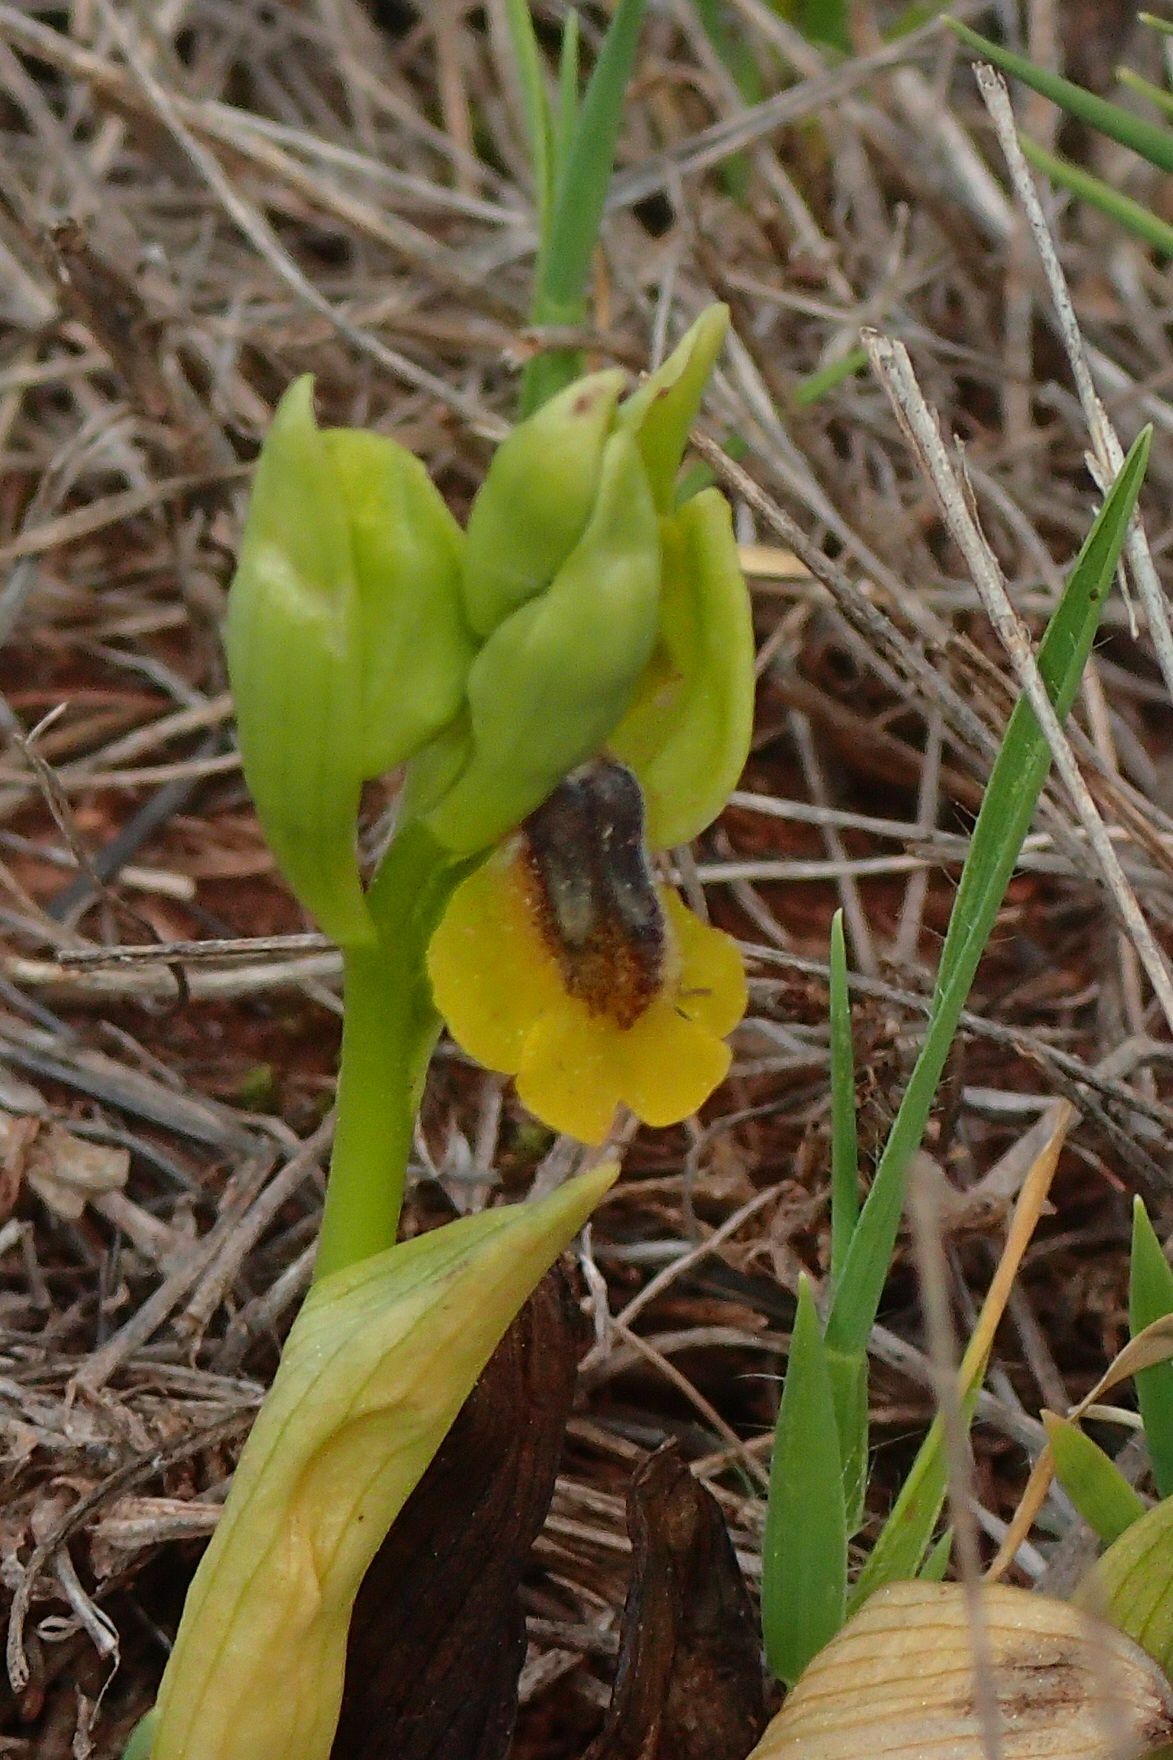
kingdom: Plantae
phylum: Tracheophyta
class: Liliopsida
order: Asparagales
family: Orchidaceae
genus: Ophrys
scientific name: Ophrys lutea
